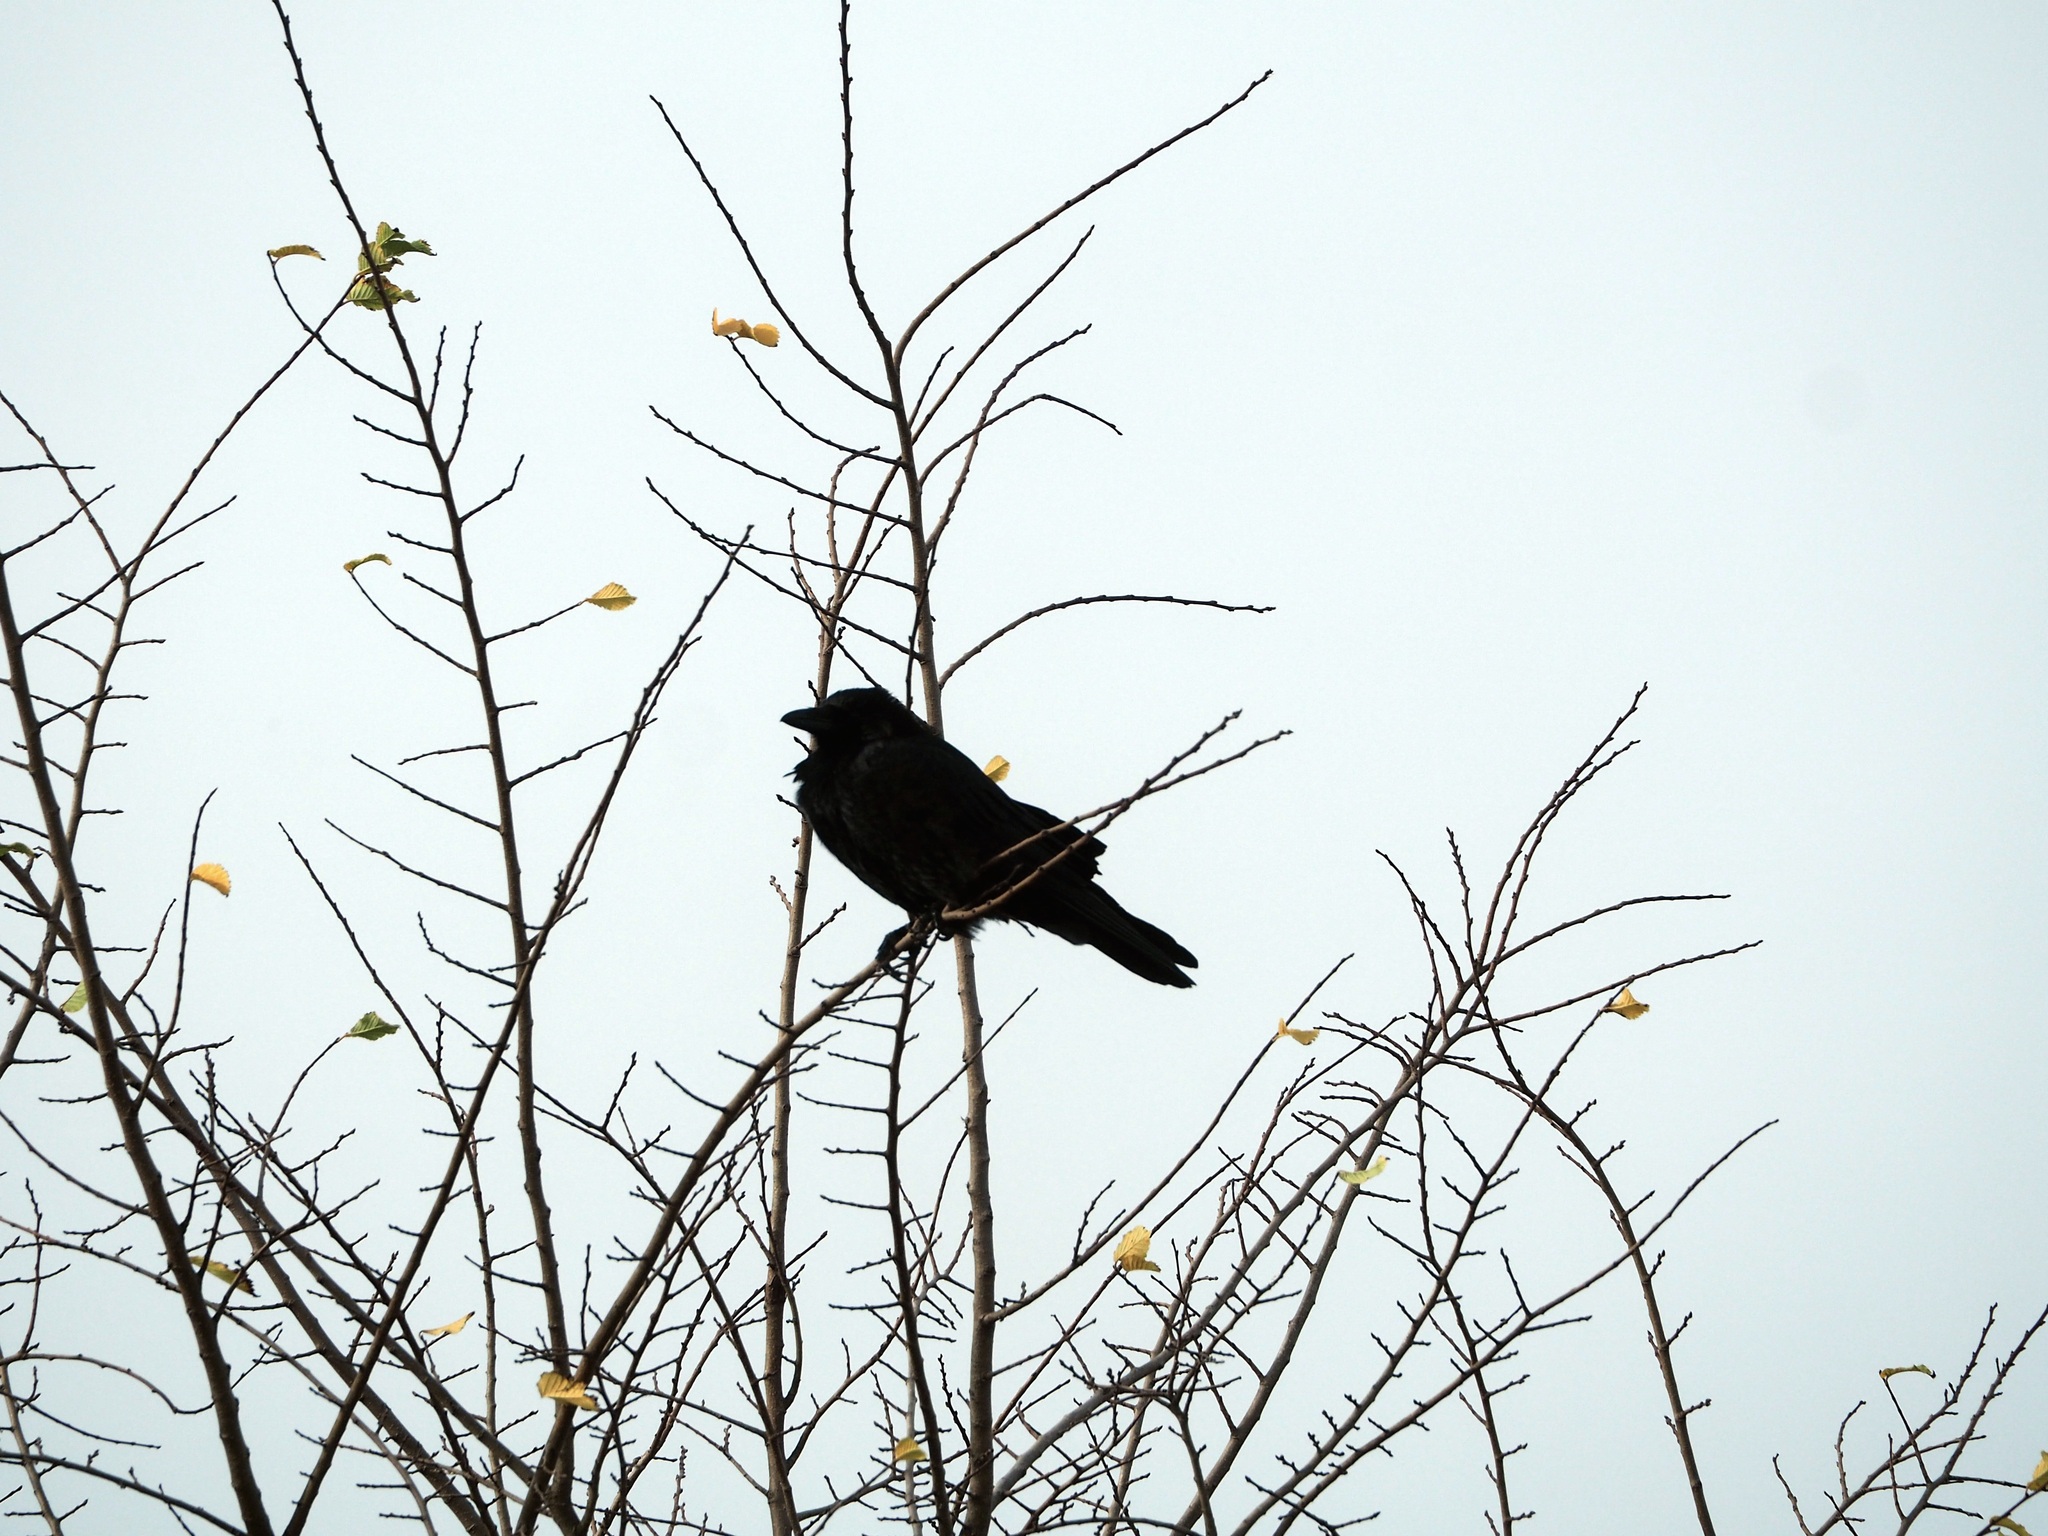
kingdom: Animalia
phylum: Chordata
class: Aves
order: Passeriformes
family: Corvidae
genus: Coloeus
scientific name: Coloeus monedula
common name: Western jackdaw
